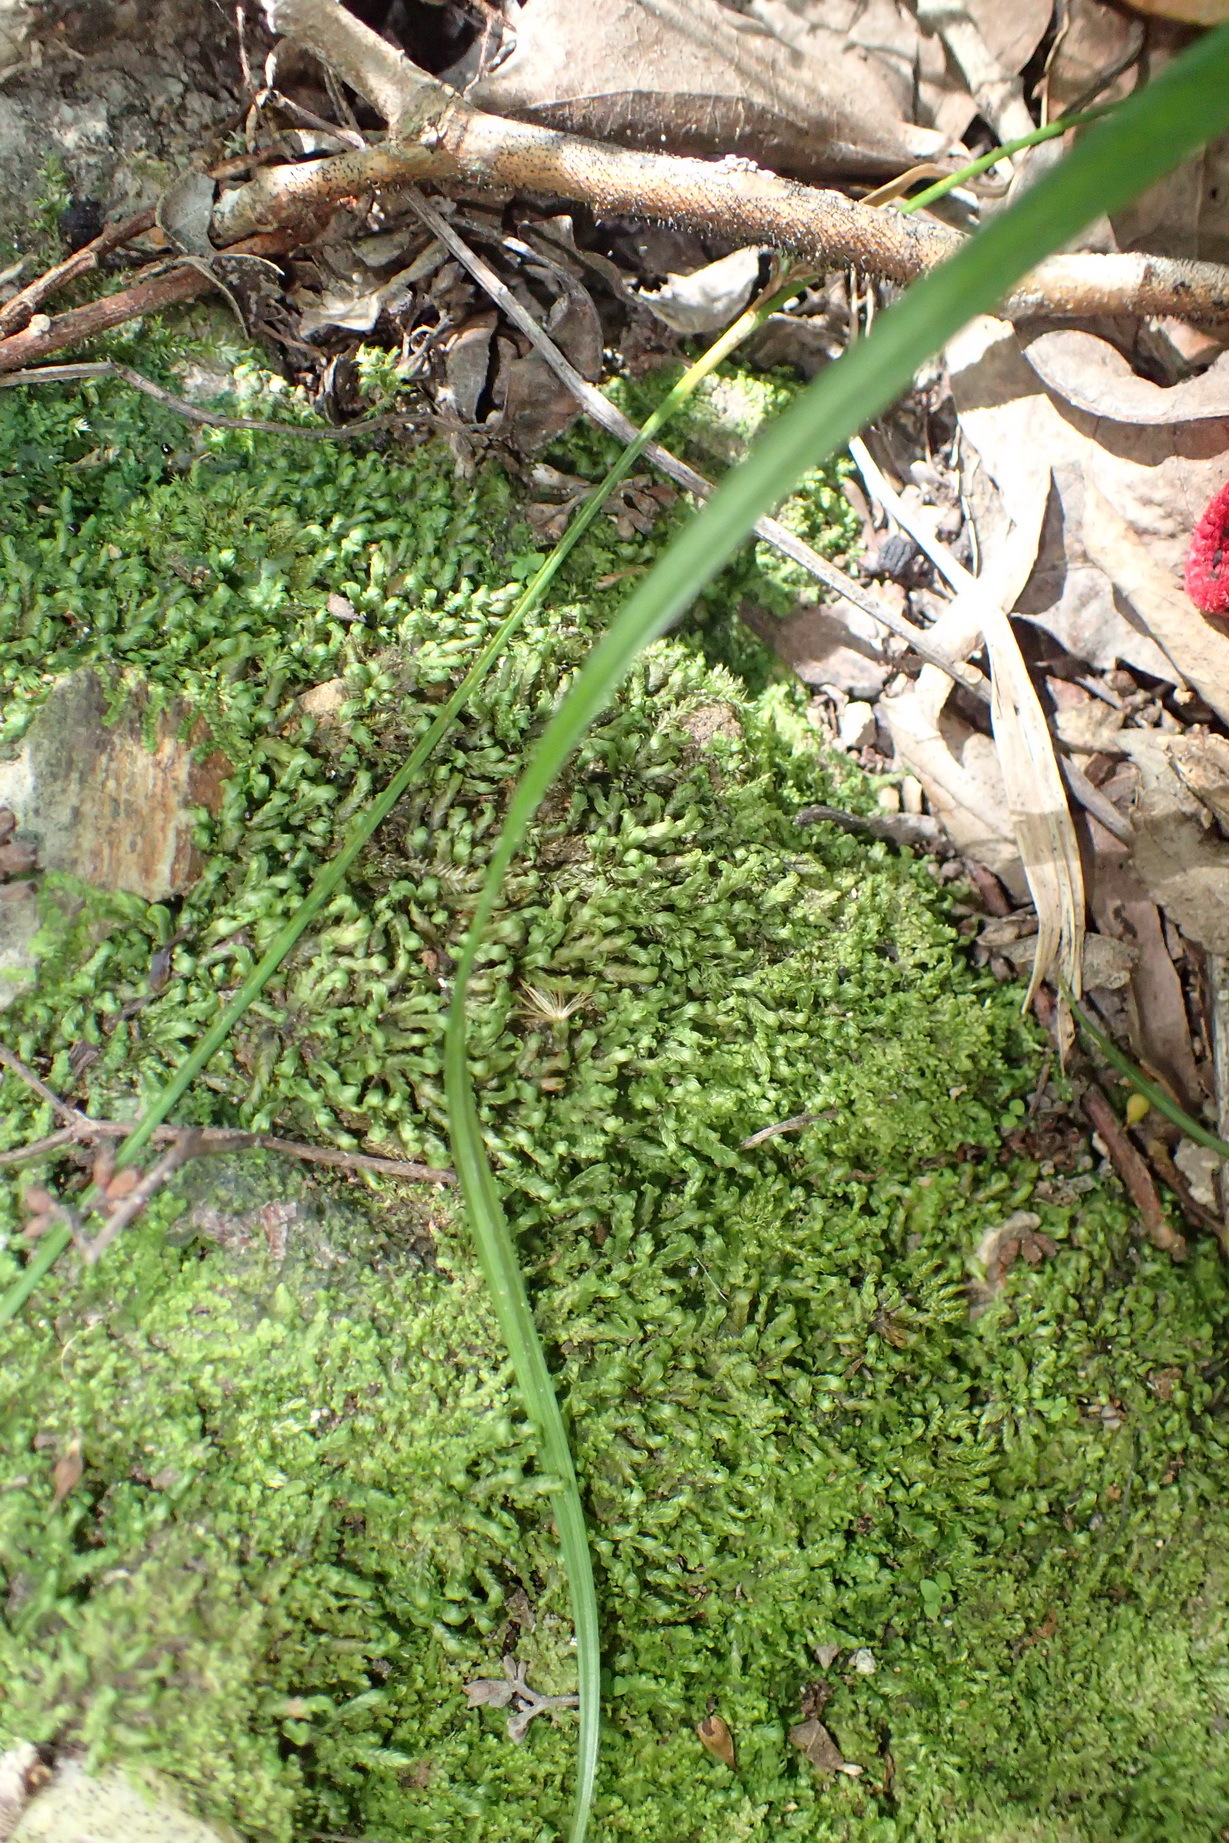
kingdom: Plantae
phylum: Bryophyta
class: Bryopsida
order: Dicranales
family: Fissidentaceae
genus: Fissidens
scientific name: Fissidens ovatus
